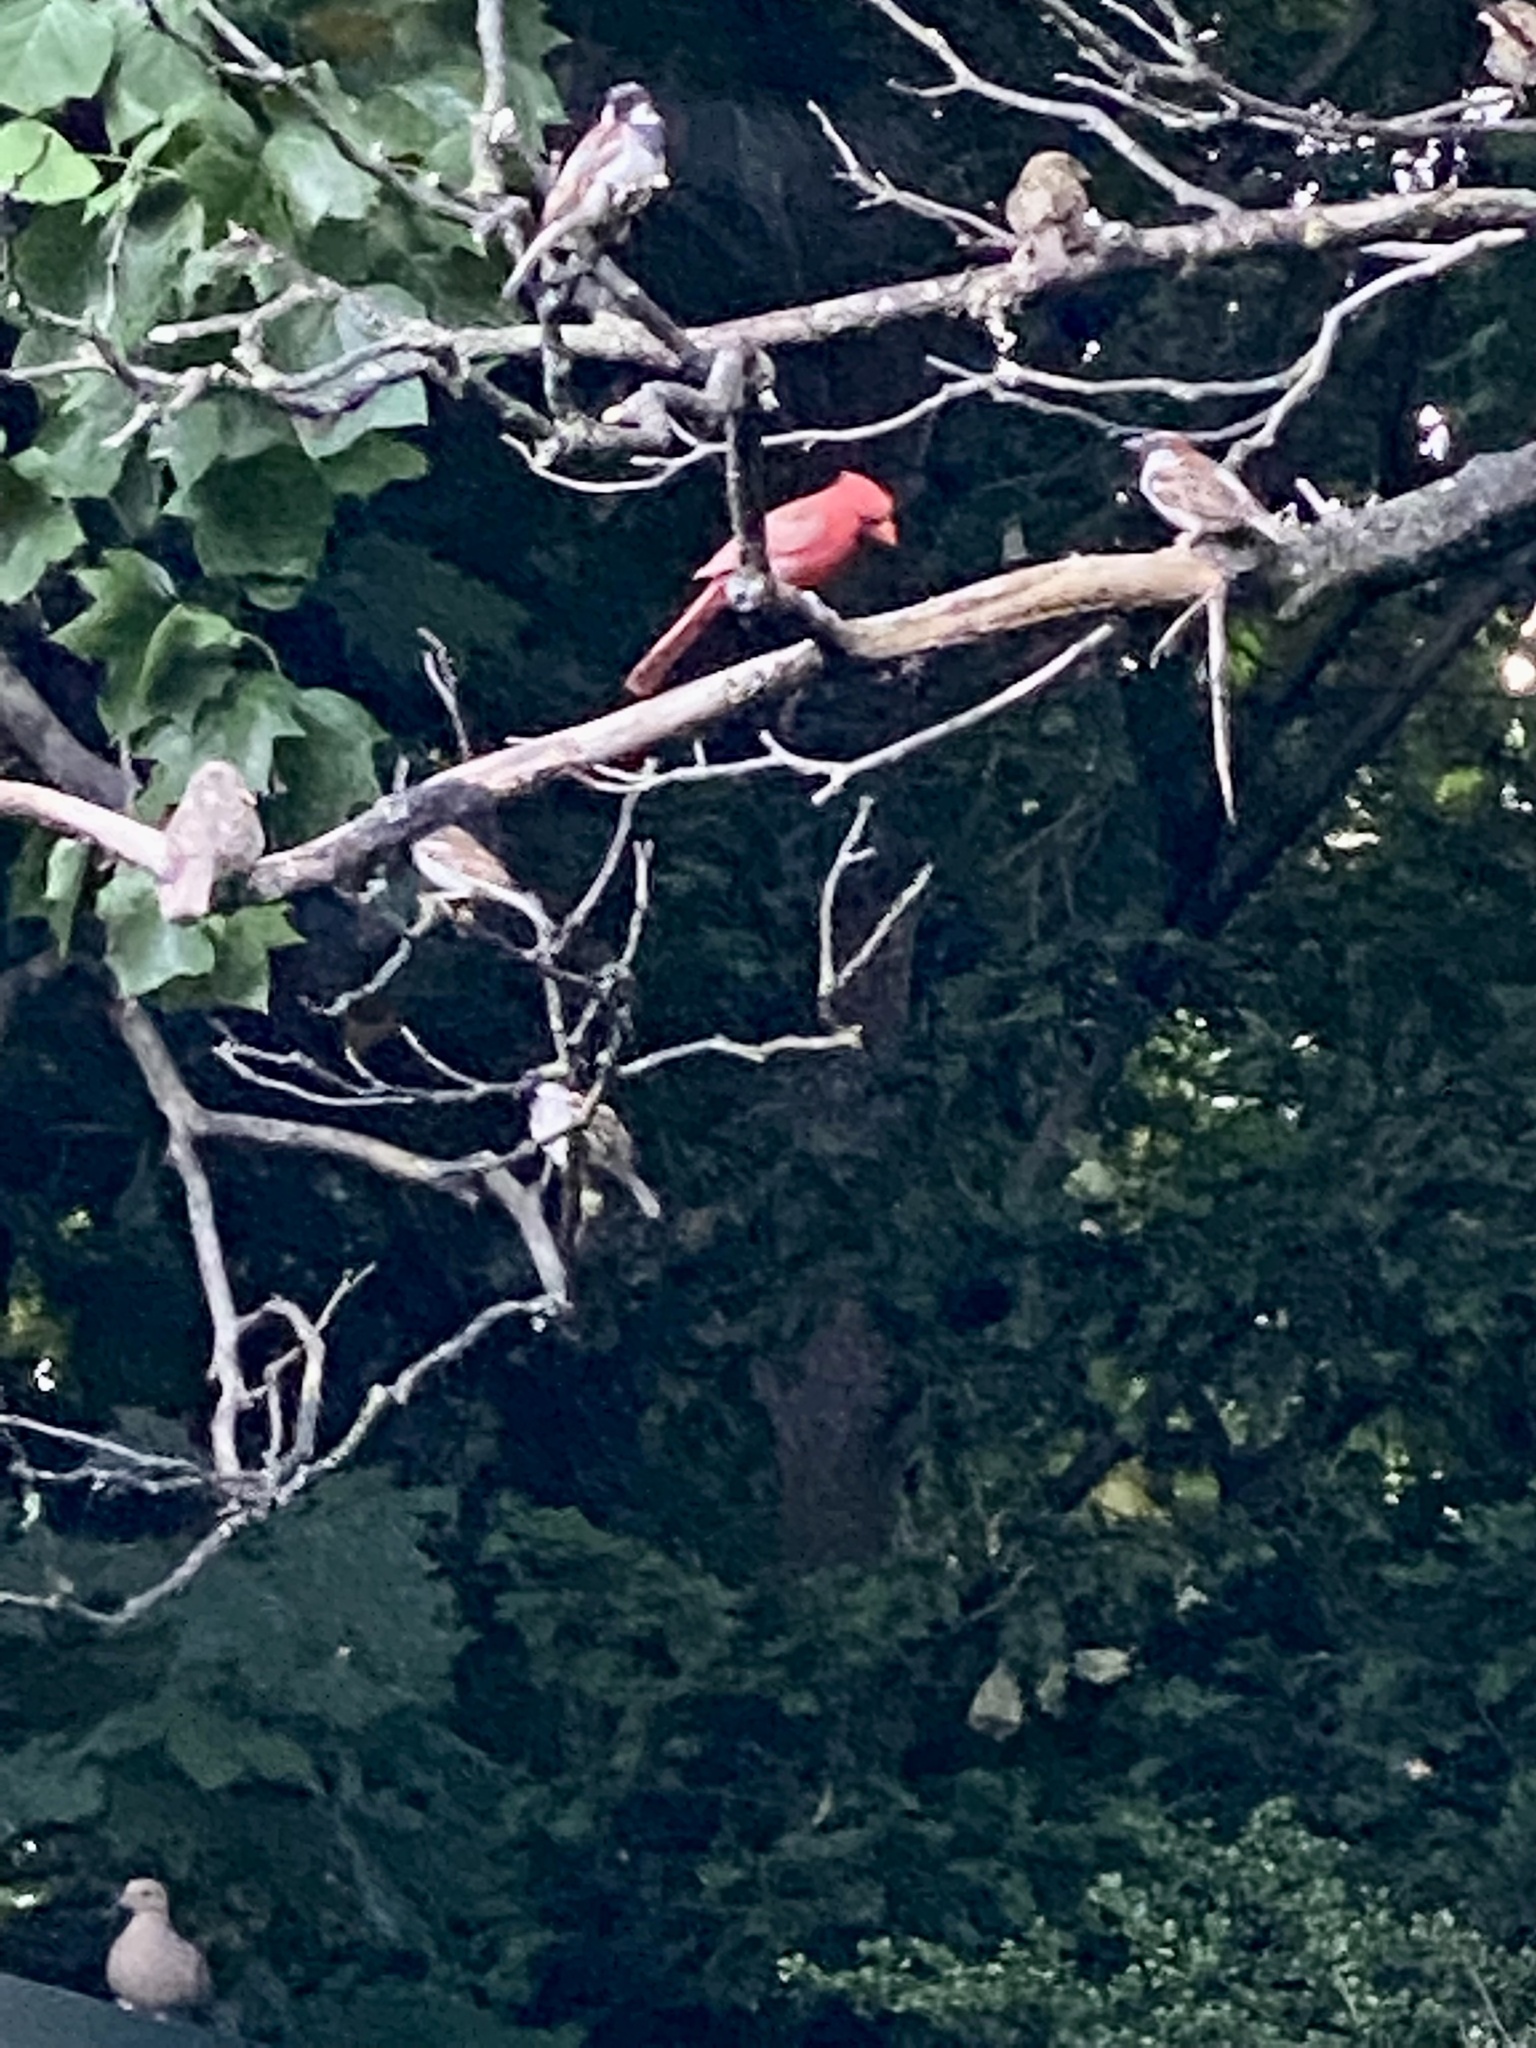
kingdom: Animalia
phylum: Chordata
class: Aves
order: Passeriformes
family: Cardinalidae
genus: Cardinalis
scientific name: Cardinalis cardinalis
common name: Northern cardinal
